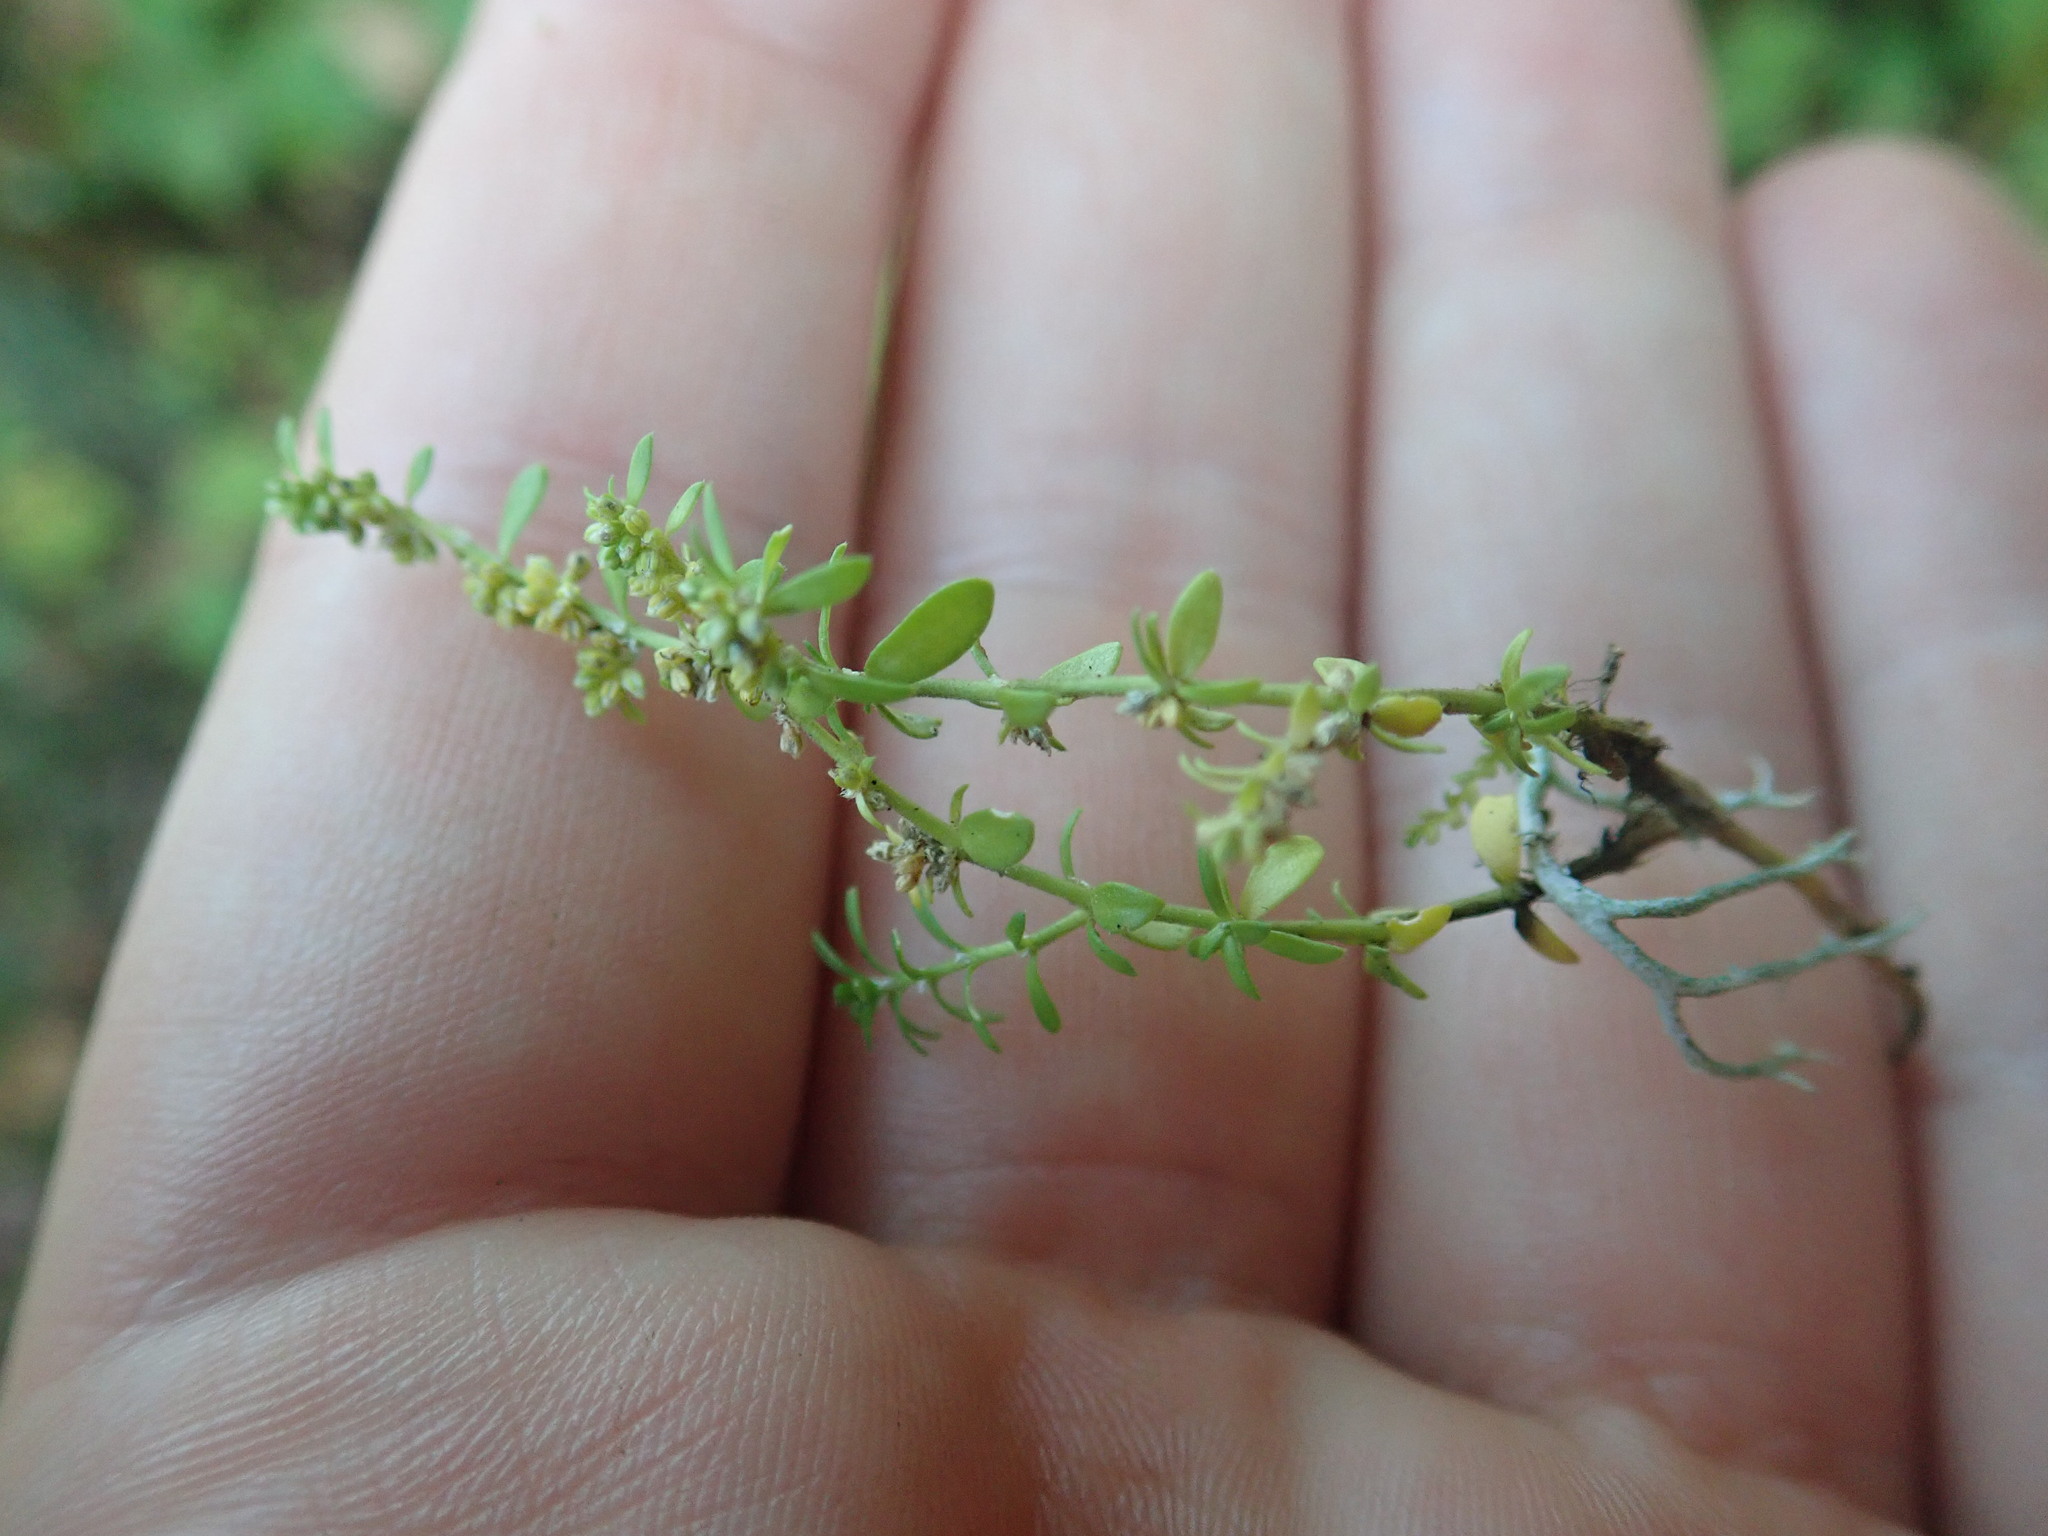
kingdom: Plantae
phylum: Tracheophyta
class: Magnoliopsida
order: Caryophyllales
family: Caryophyllaceae
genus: Herniaria
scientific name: Herniaria glabra
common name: Smooth rupturewort
